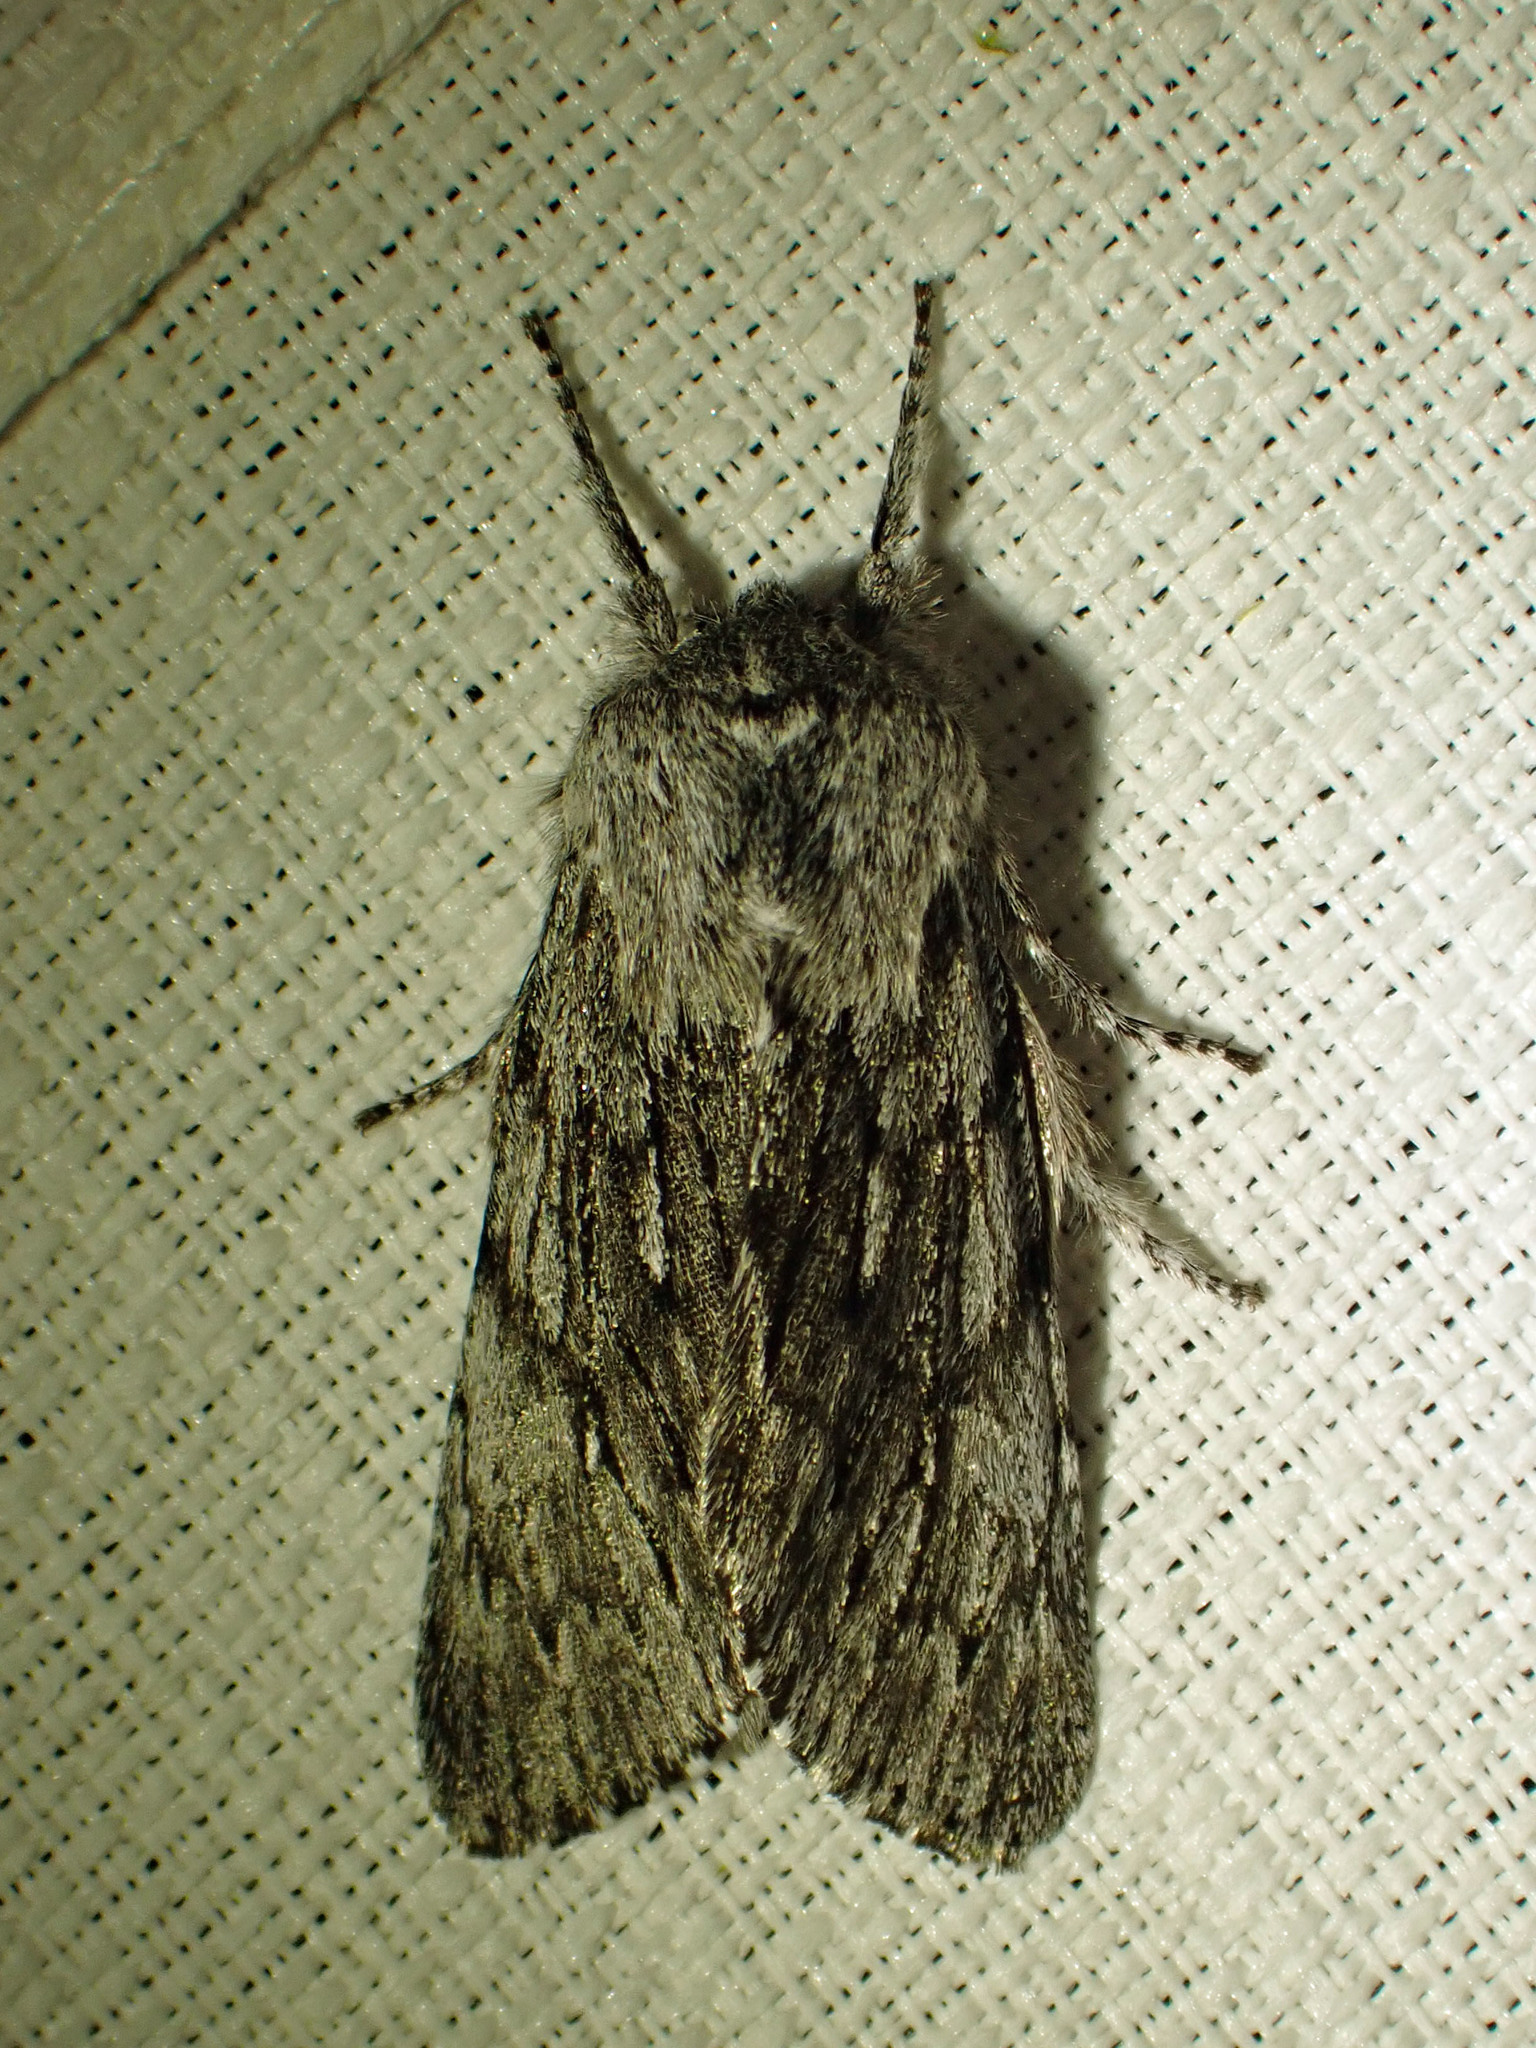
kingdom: Animalia
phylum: Arthropoda
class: Insecta
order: Lepidoptera
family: Noctuidae
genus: Brachionycha
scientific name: Brachionycha borealis
